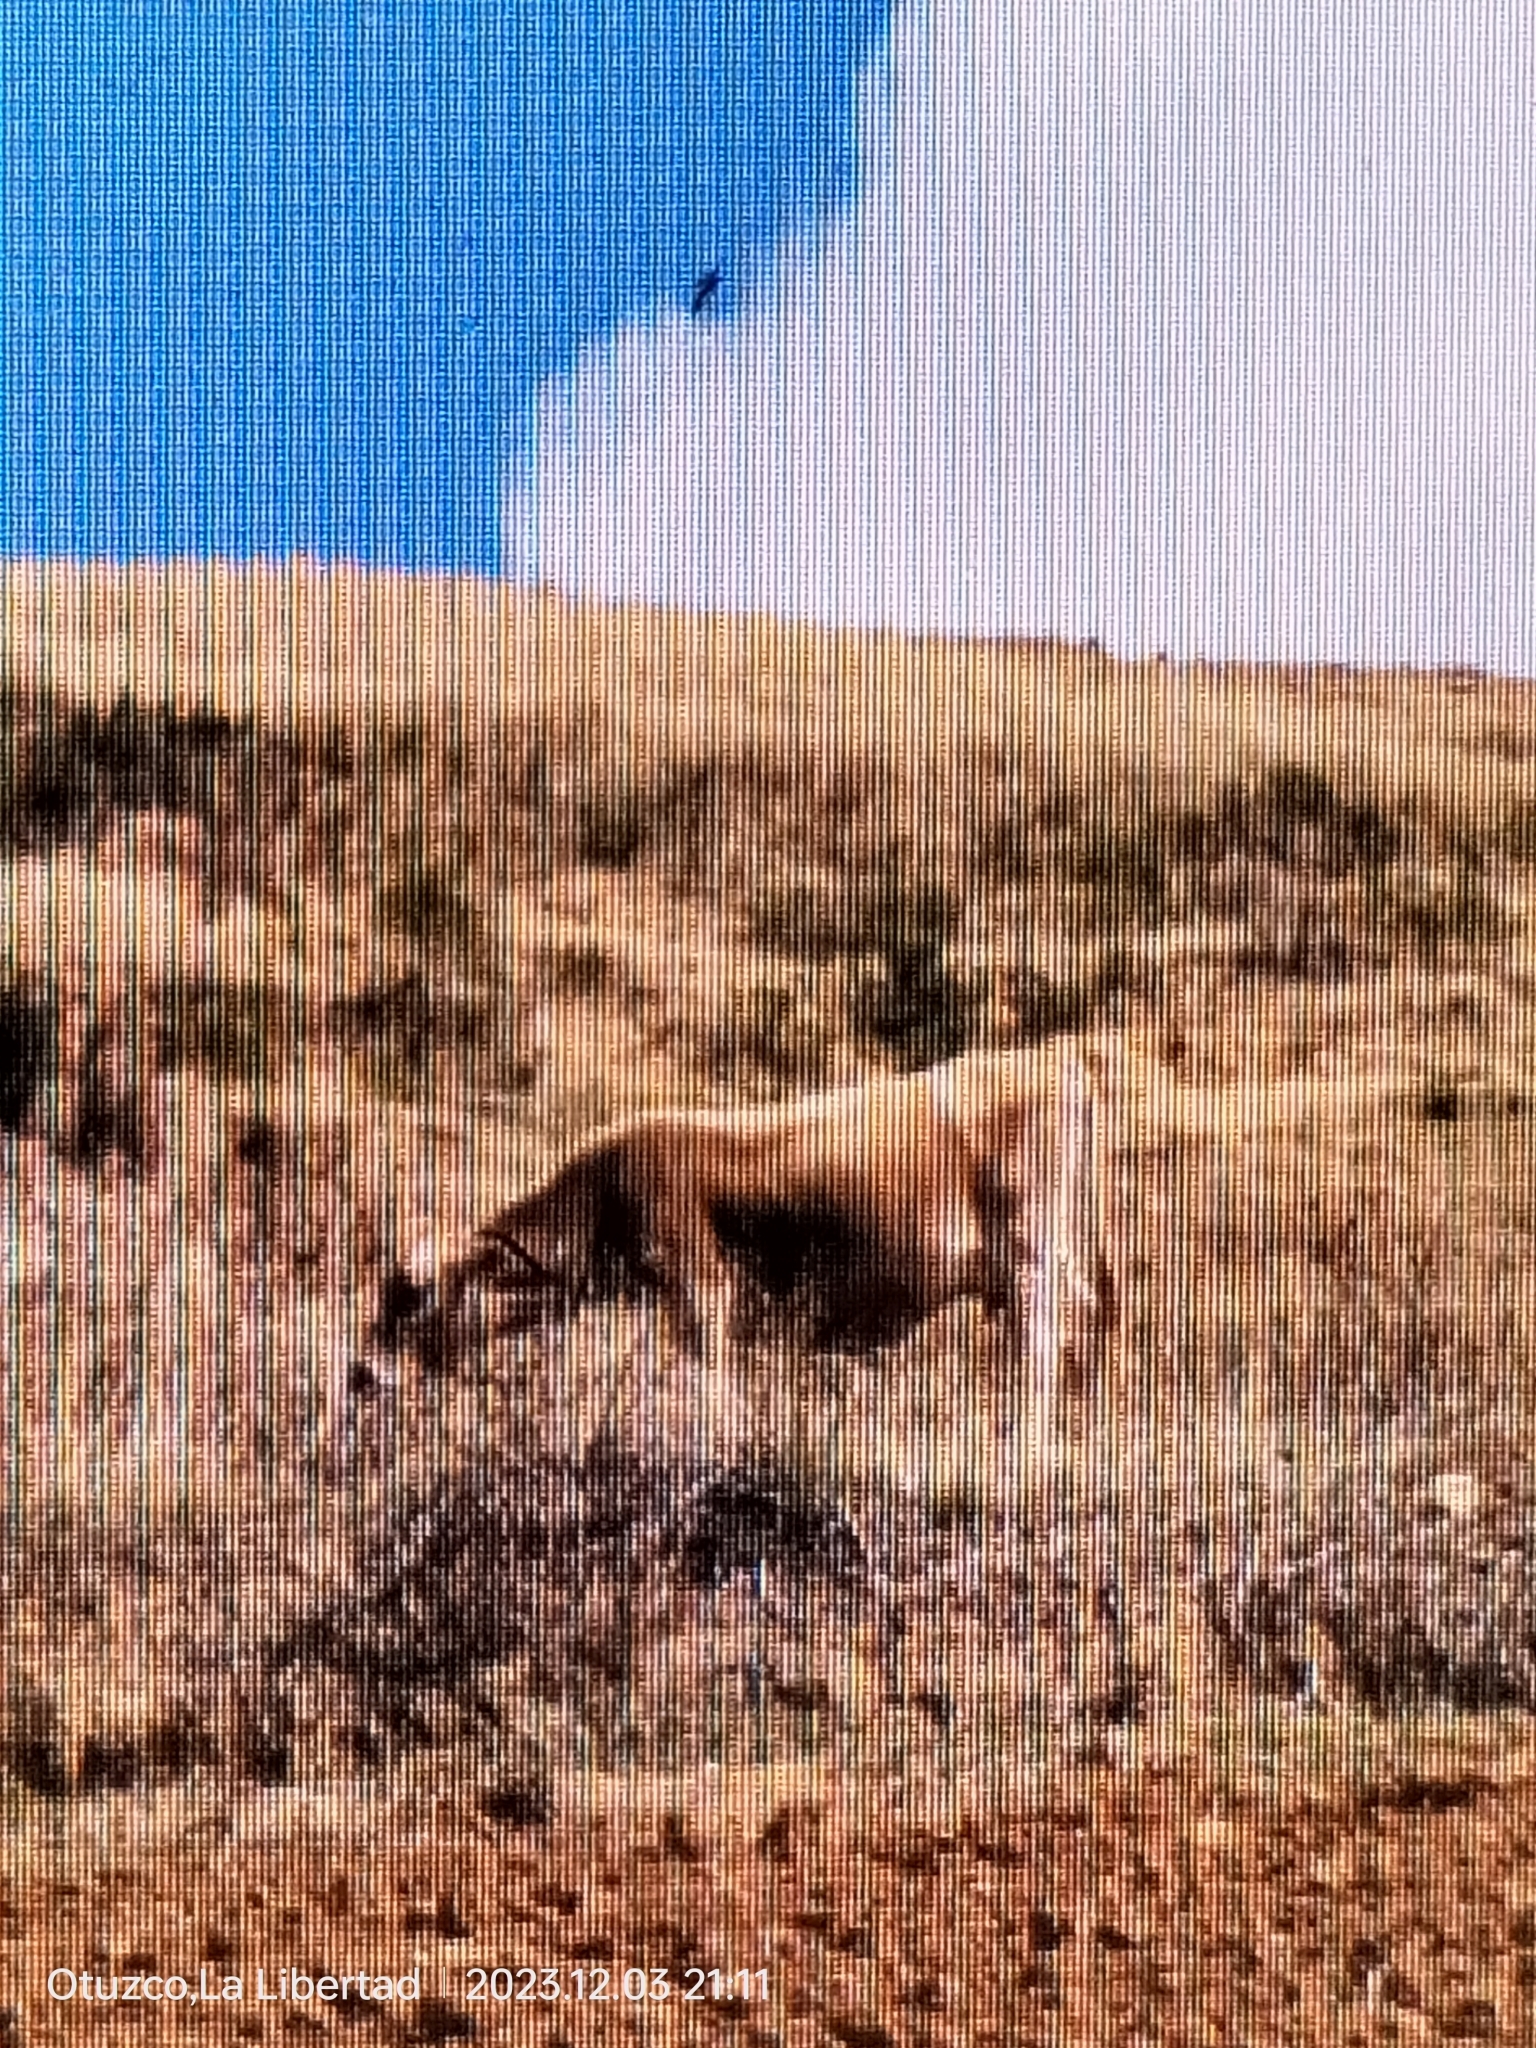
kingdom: Animalia
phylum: Chordata
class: Mammalia
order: Artiodactyla
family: Bovidae
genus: Bos
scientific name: Bos taurus
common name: Domesticated cattle
